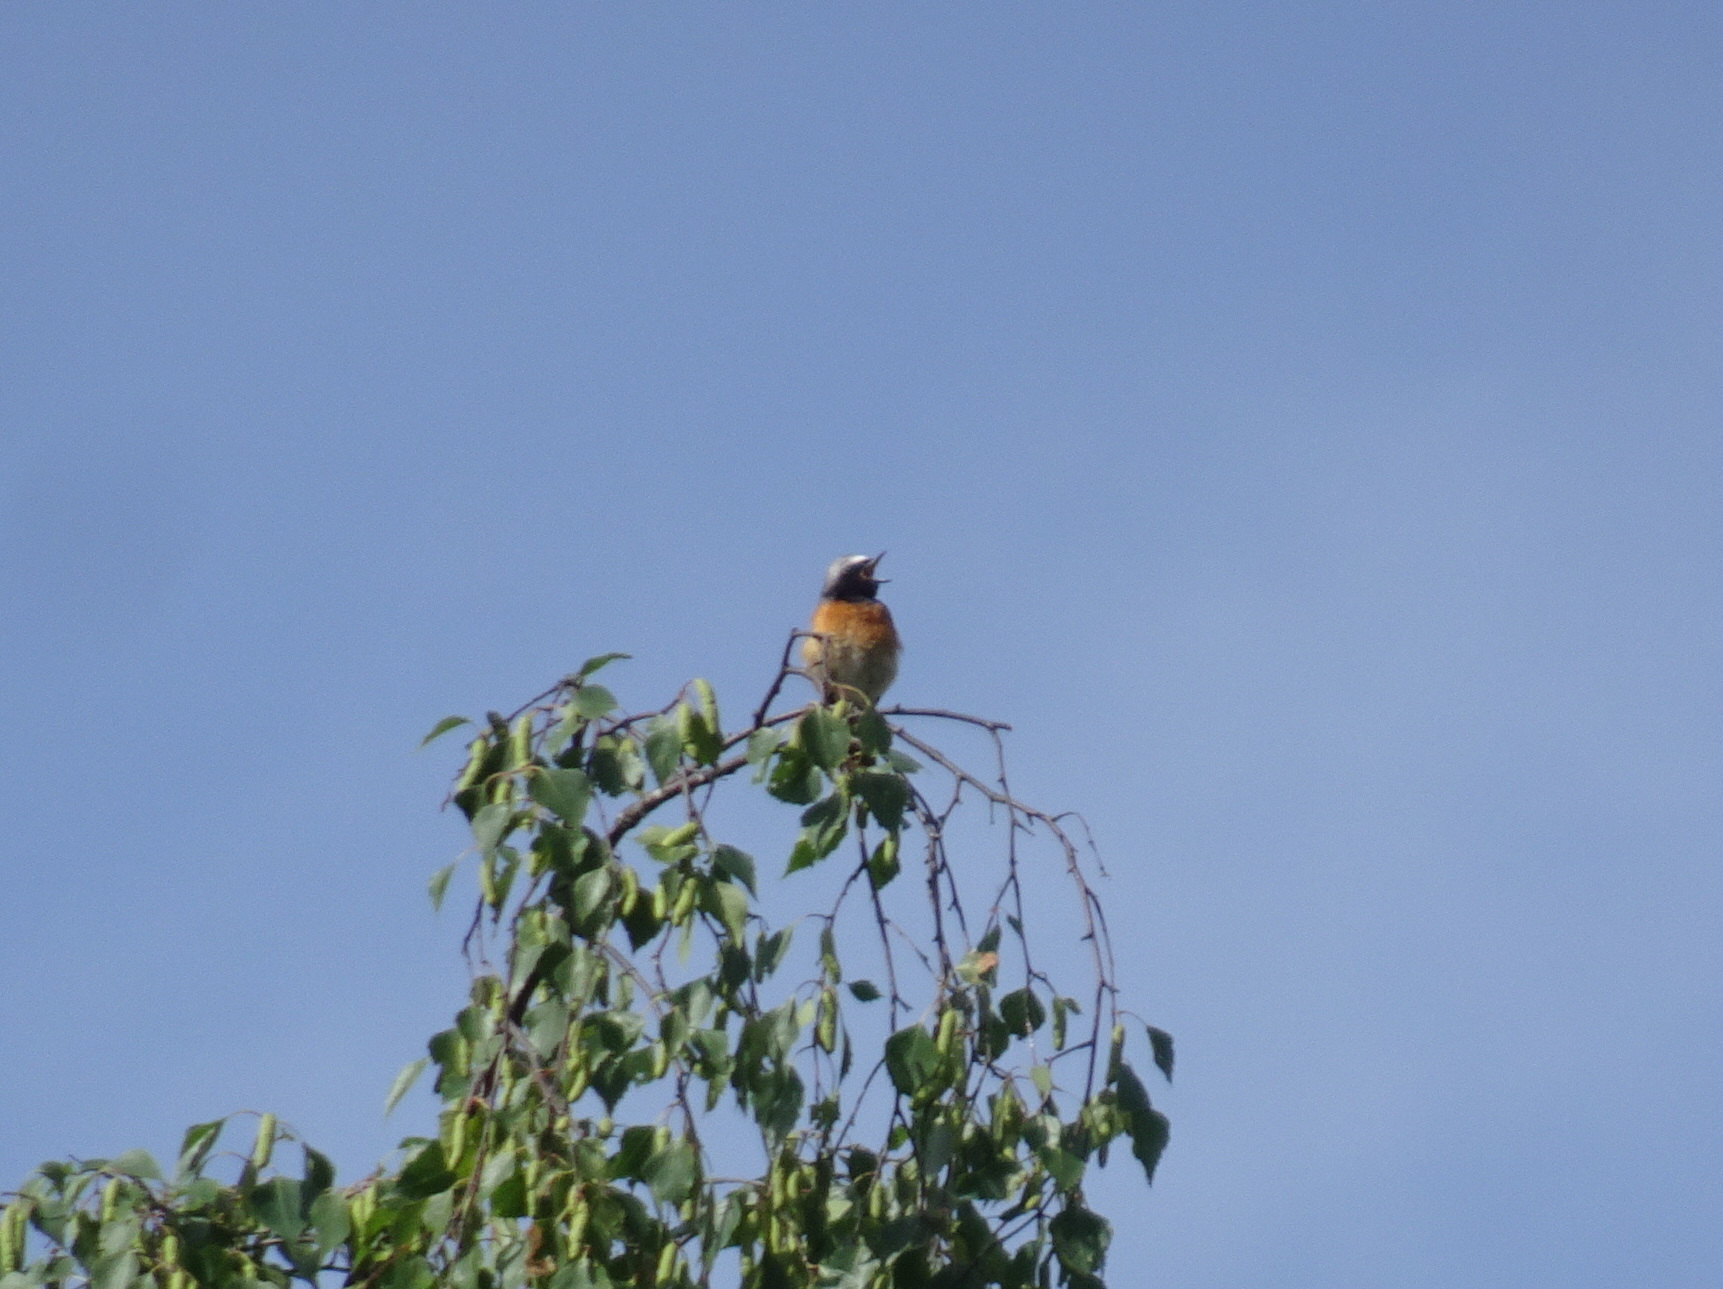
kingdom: Animalia
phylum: Chordata
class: Aves
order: Passeriformes
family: Muscicapidae
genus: Phoenicurus
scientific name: Phoenicurus phoenicurus
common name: Common redstart
